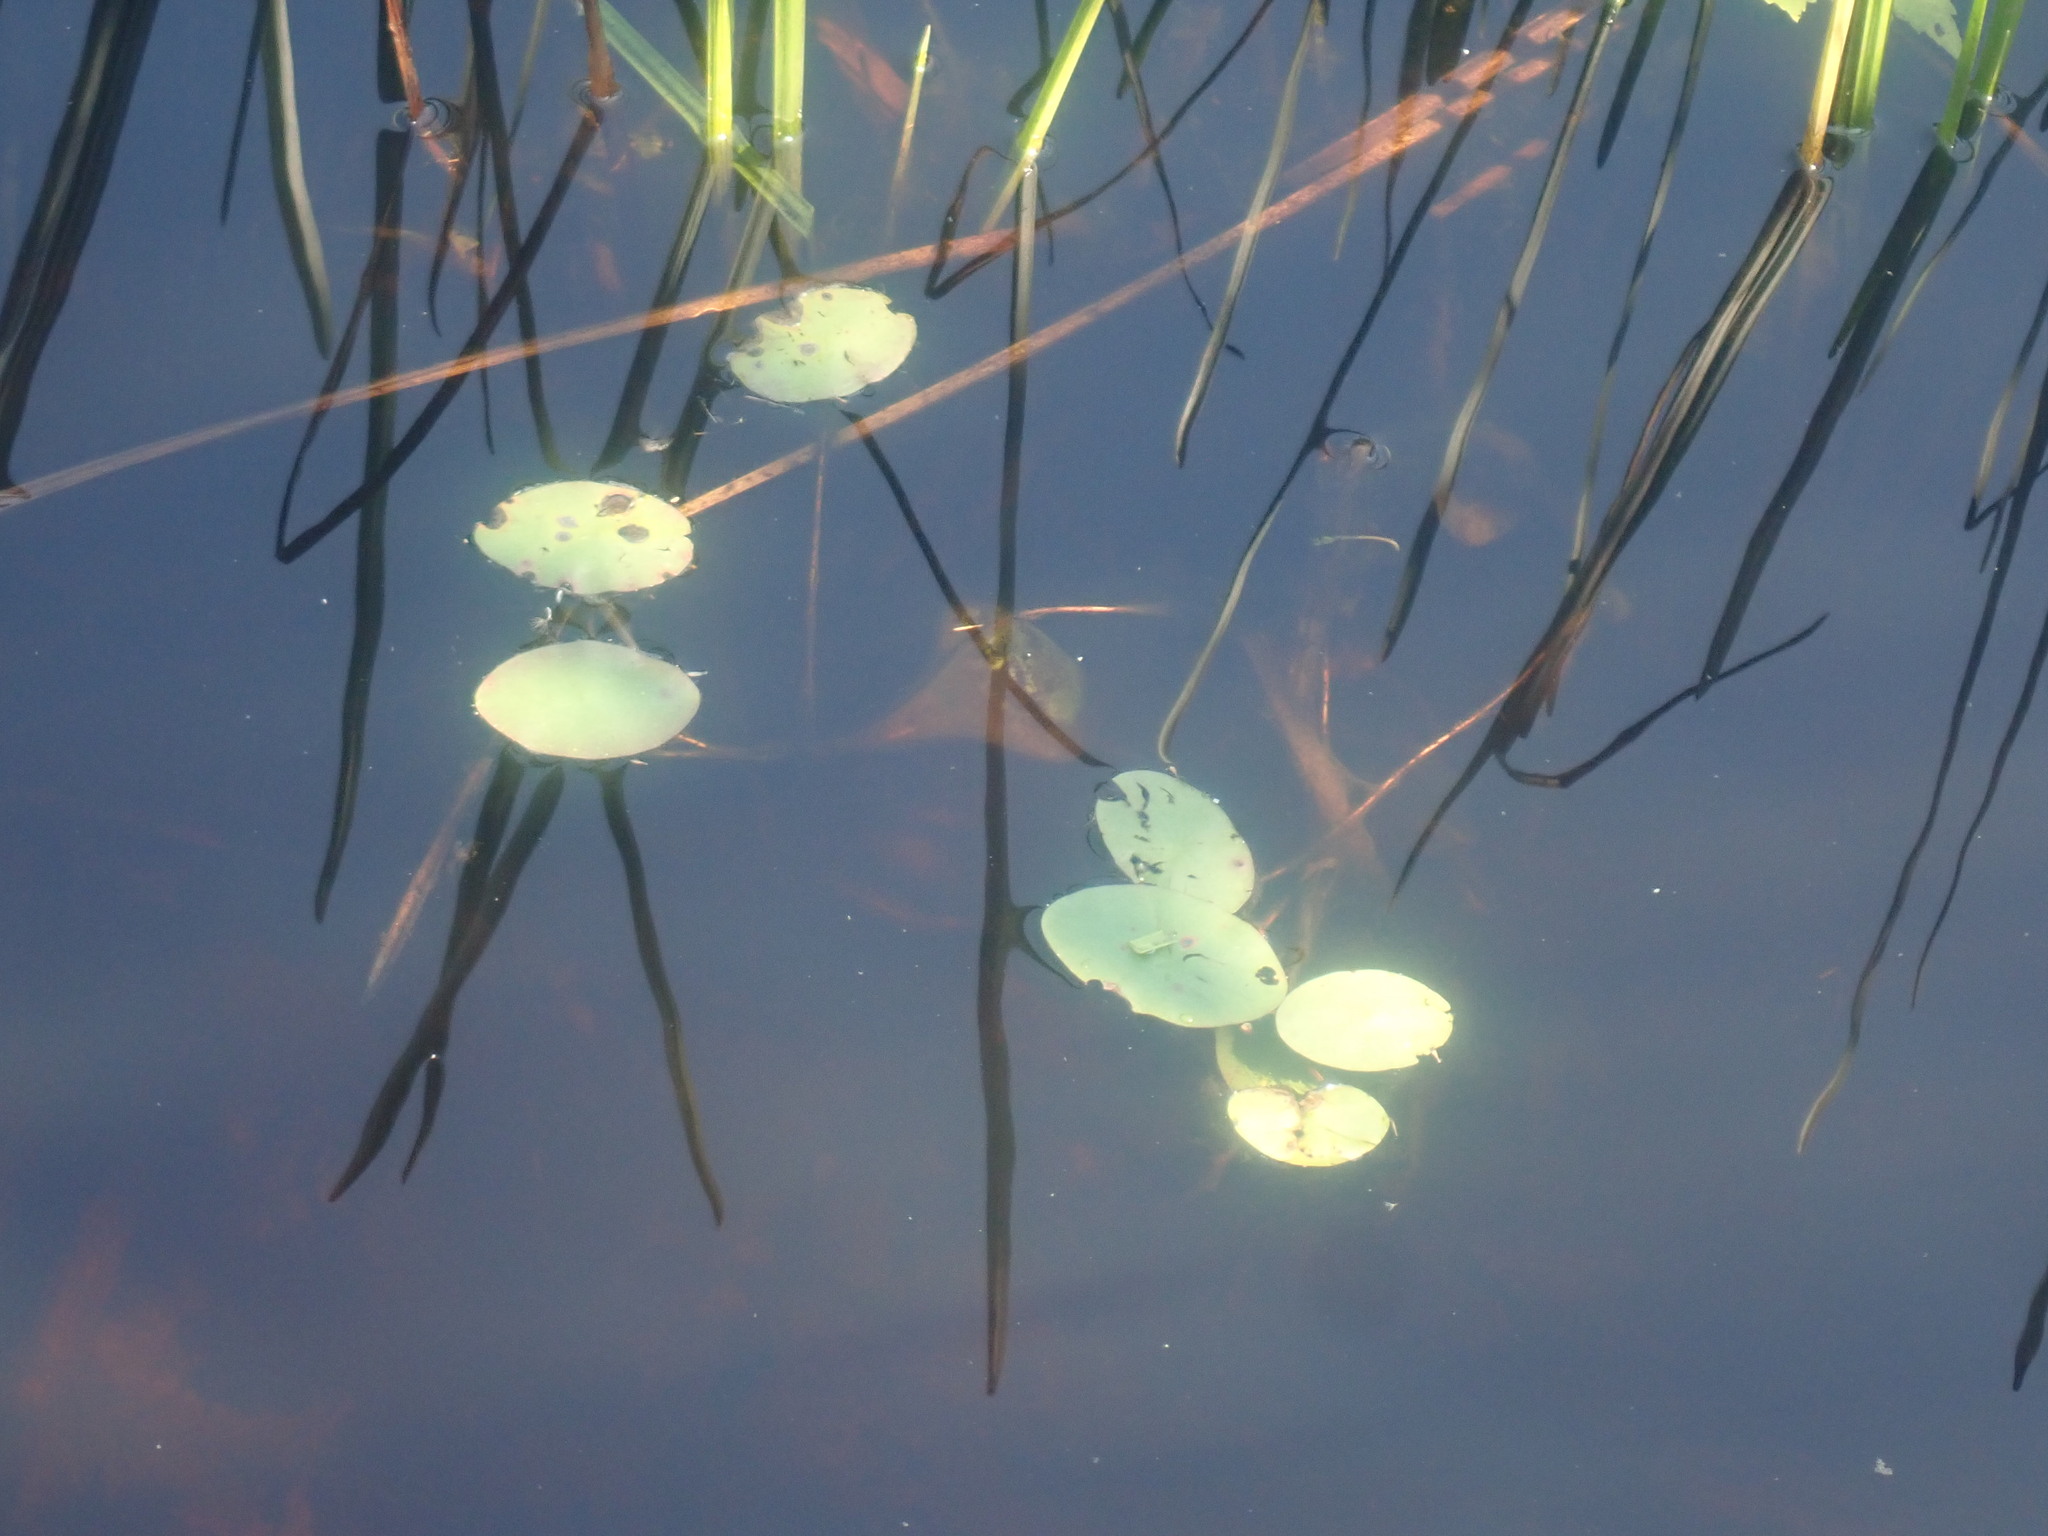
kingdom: Plantae
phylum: Tracheophyta
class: Magnoliopsida
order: Nymphaeales
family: Cabombaceae
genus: Brasenia
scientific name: Brasenia schreberi
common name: Water-shield
